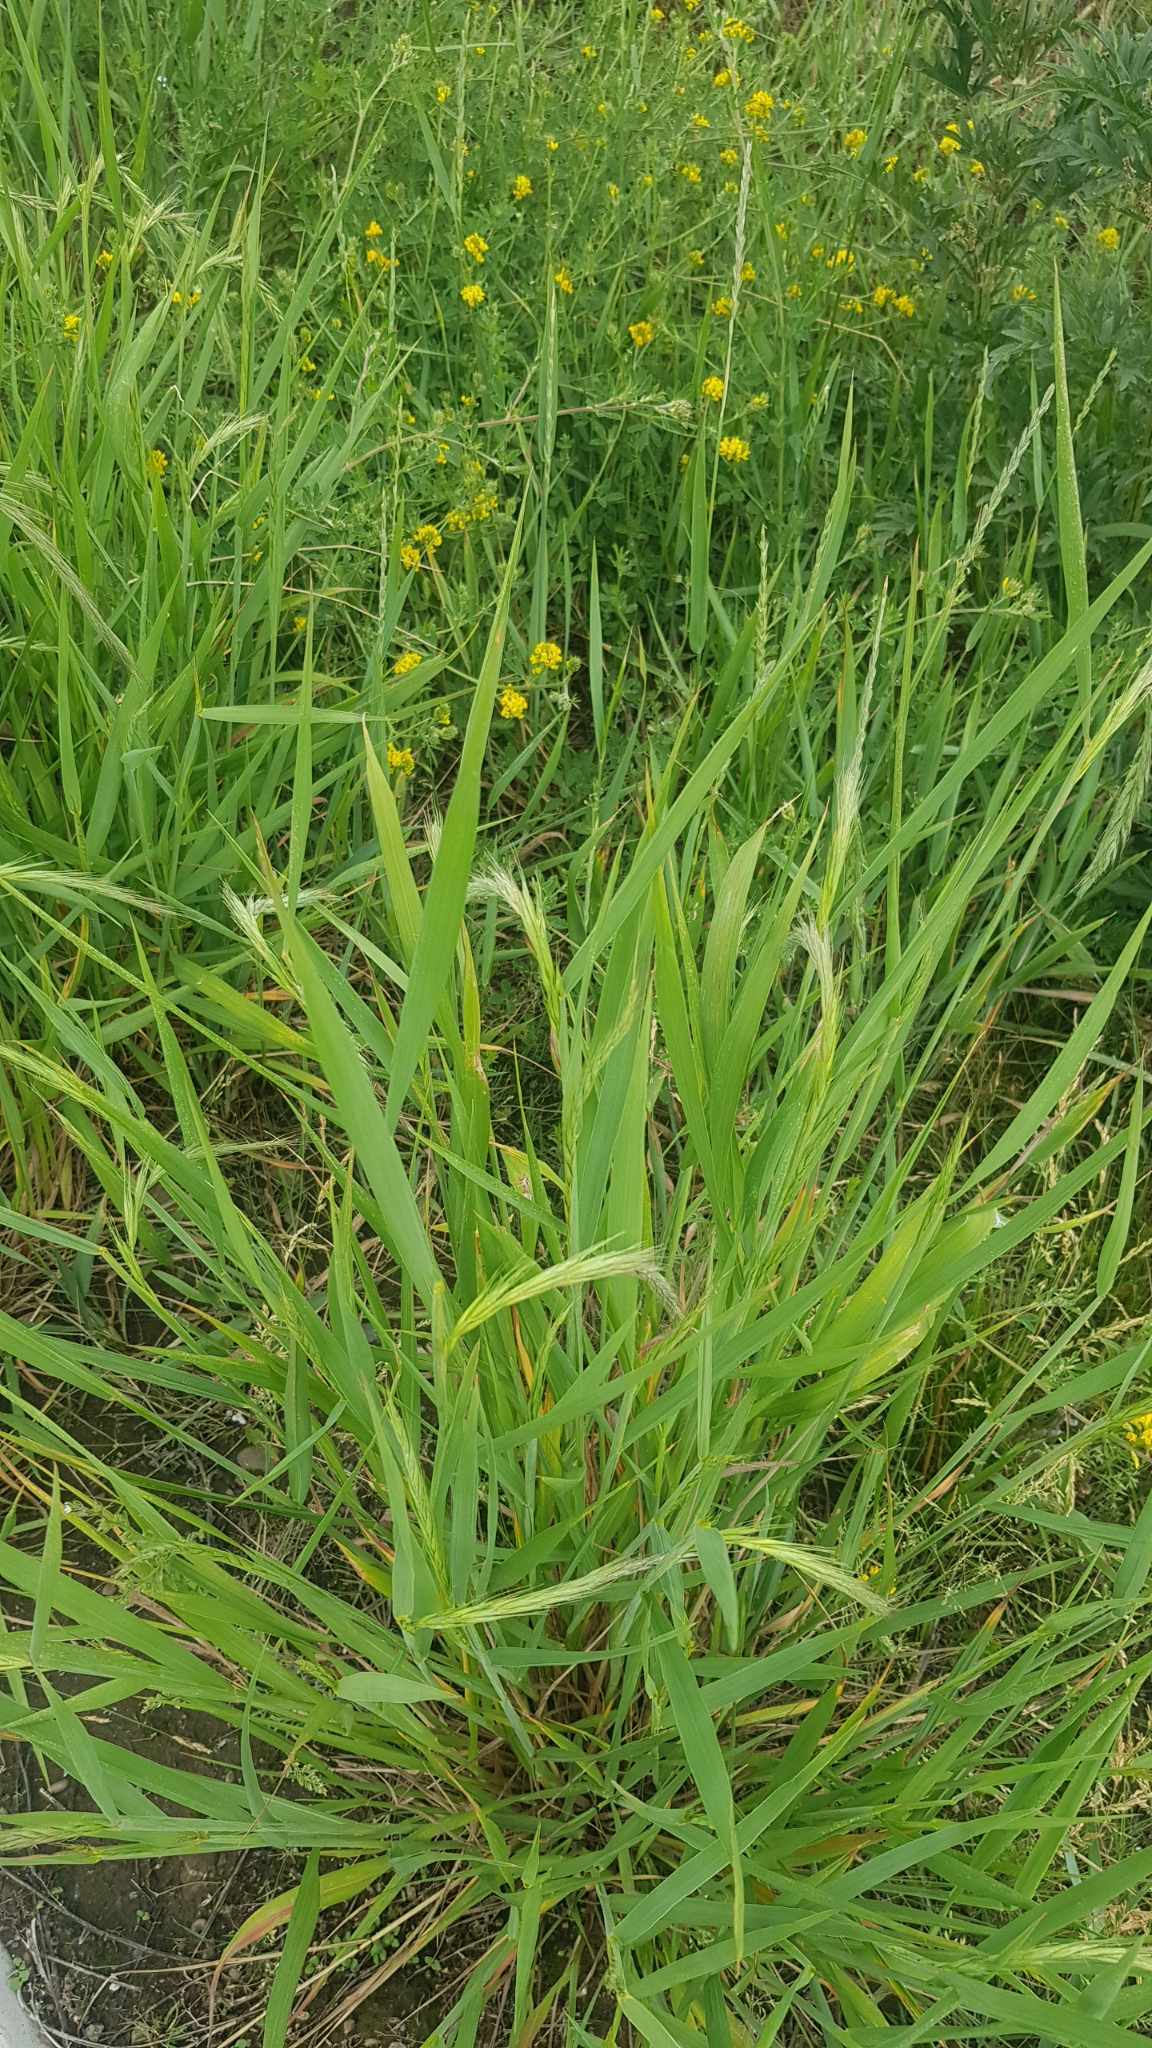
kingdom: Plantae
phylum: Tracheophyta
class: Liliopsida
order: Poales
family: Poaceae
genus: Elymus
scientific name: Elymus repens
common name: Quackgrass
